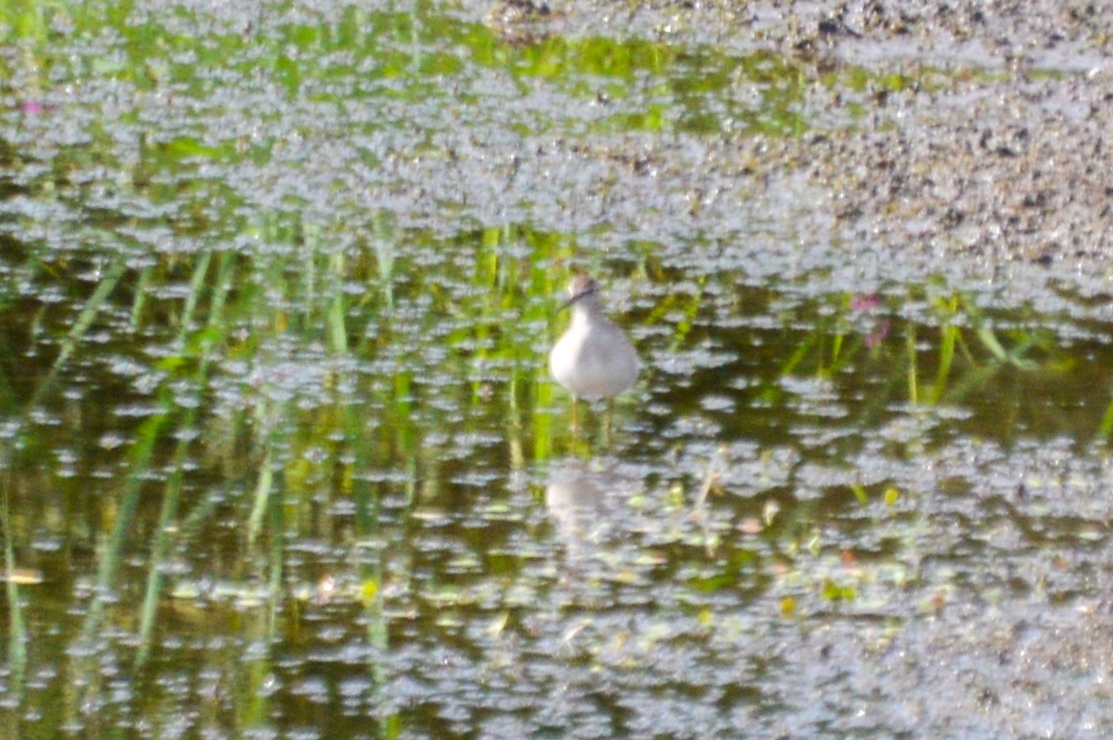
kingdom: Animalia
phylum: Chordata
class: Aves
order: Charadriiformes
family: Scolopacidae
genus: Tringa
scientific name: Tringa glareola
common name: Wood sandpiper
